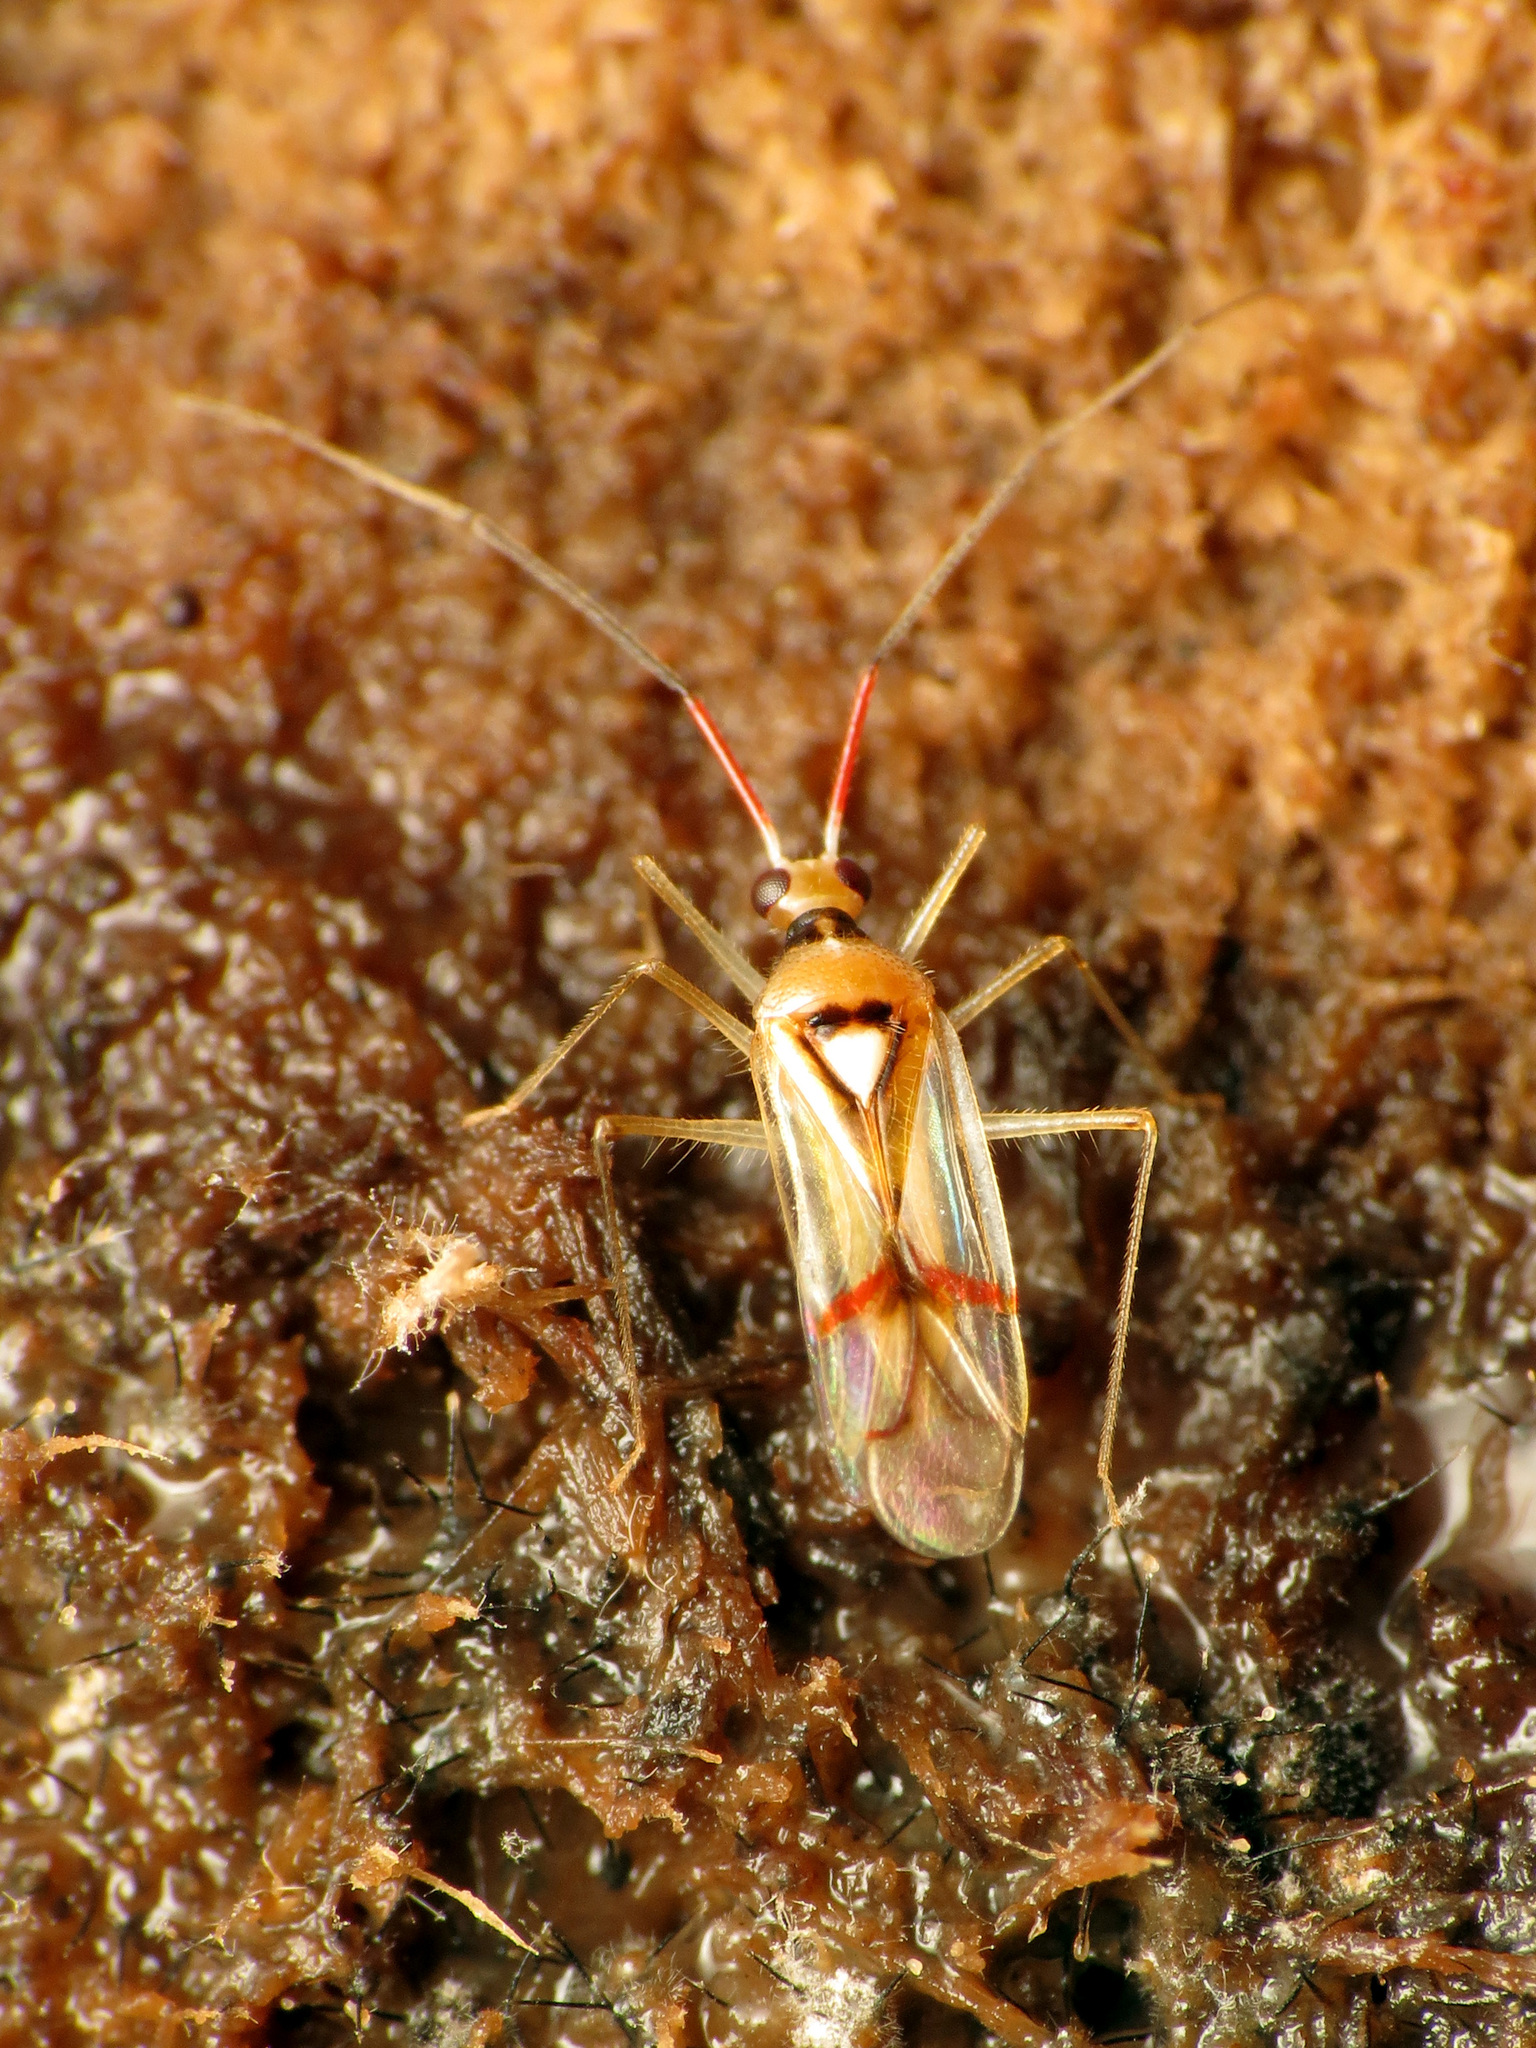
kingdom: Animalia
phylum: Arthropoda
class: Insecta
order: Hemiptera
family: Miridae
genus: Hyaliodes
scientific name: Hyaliodes harti
